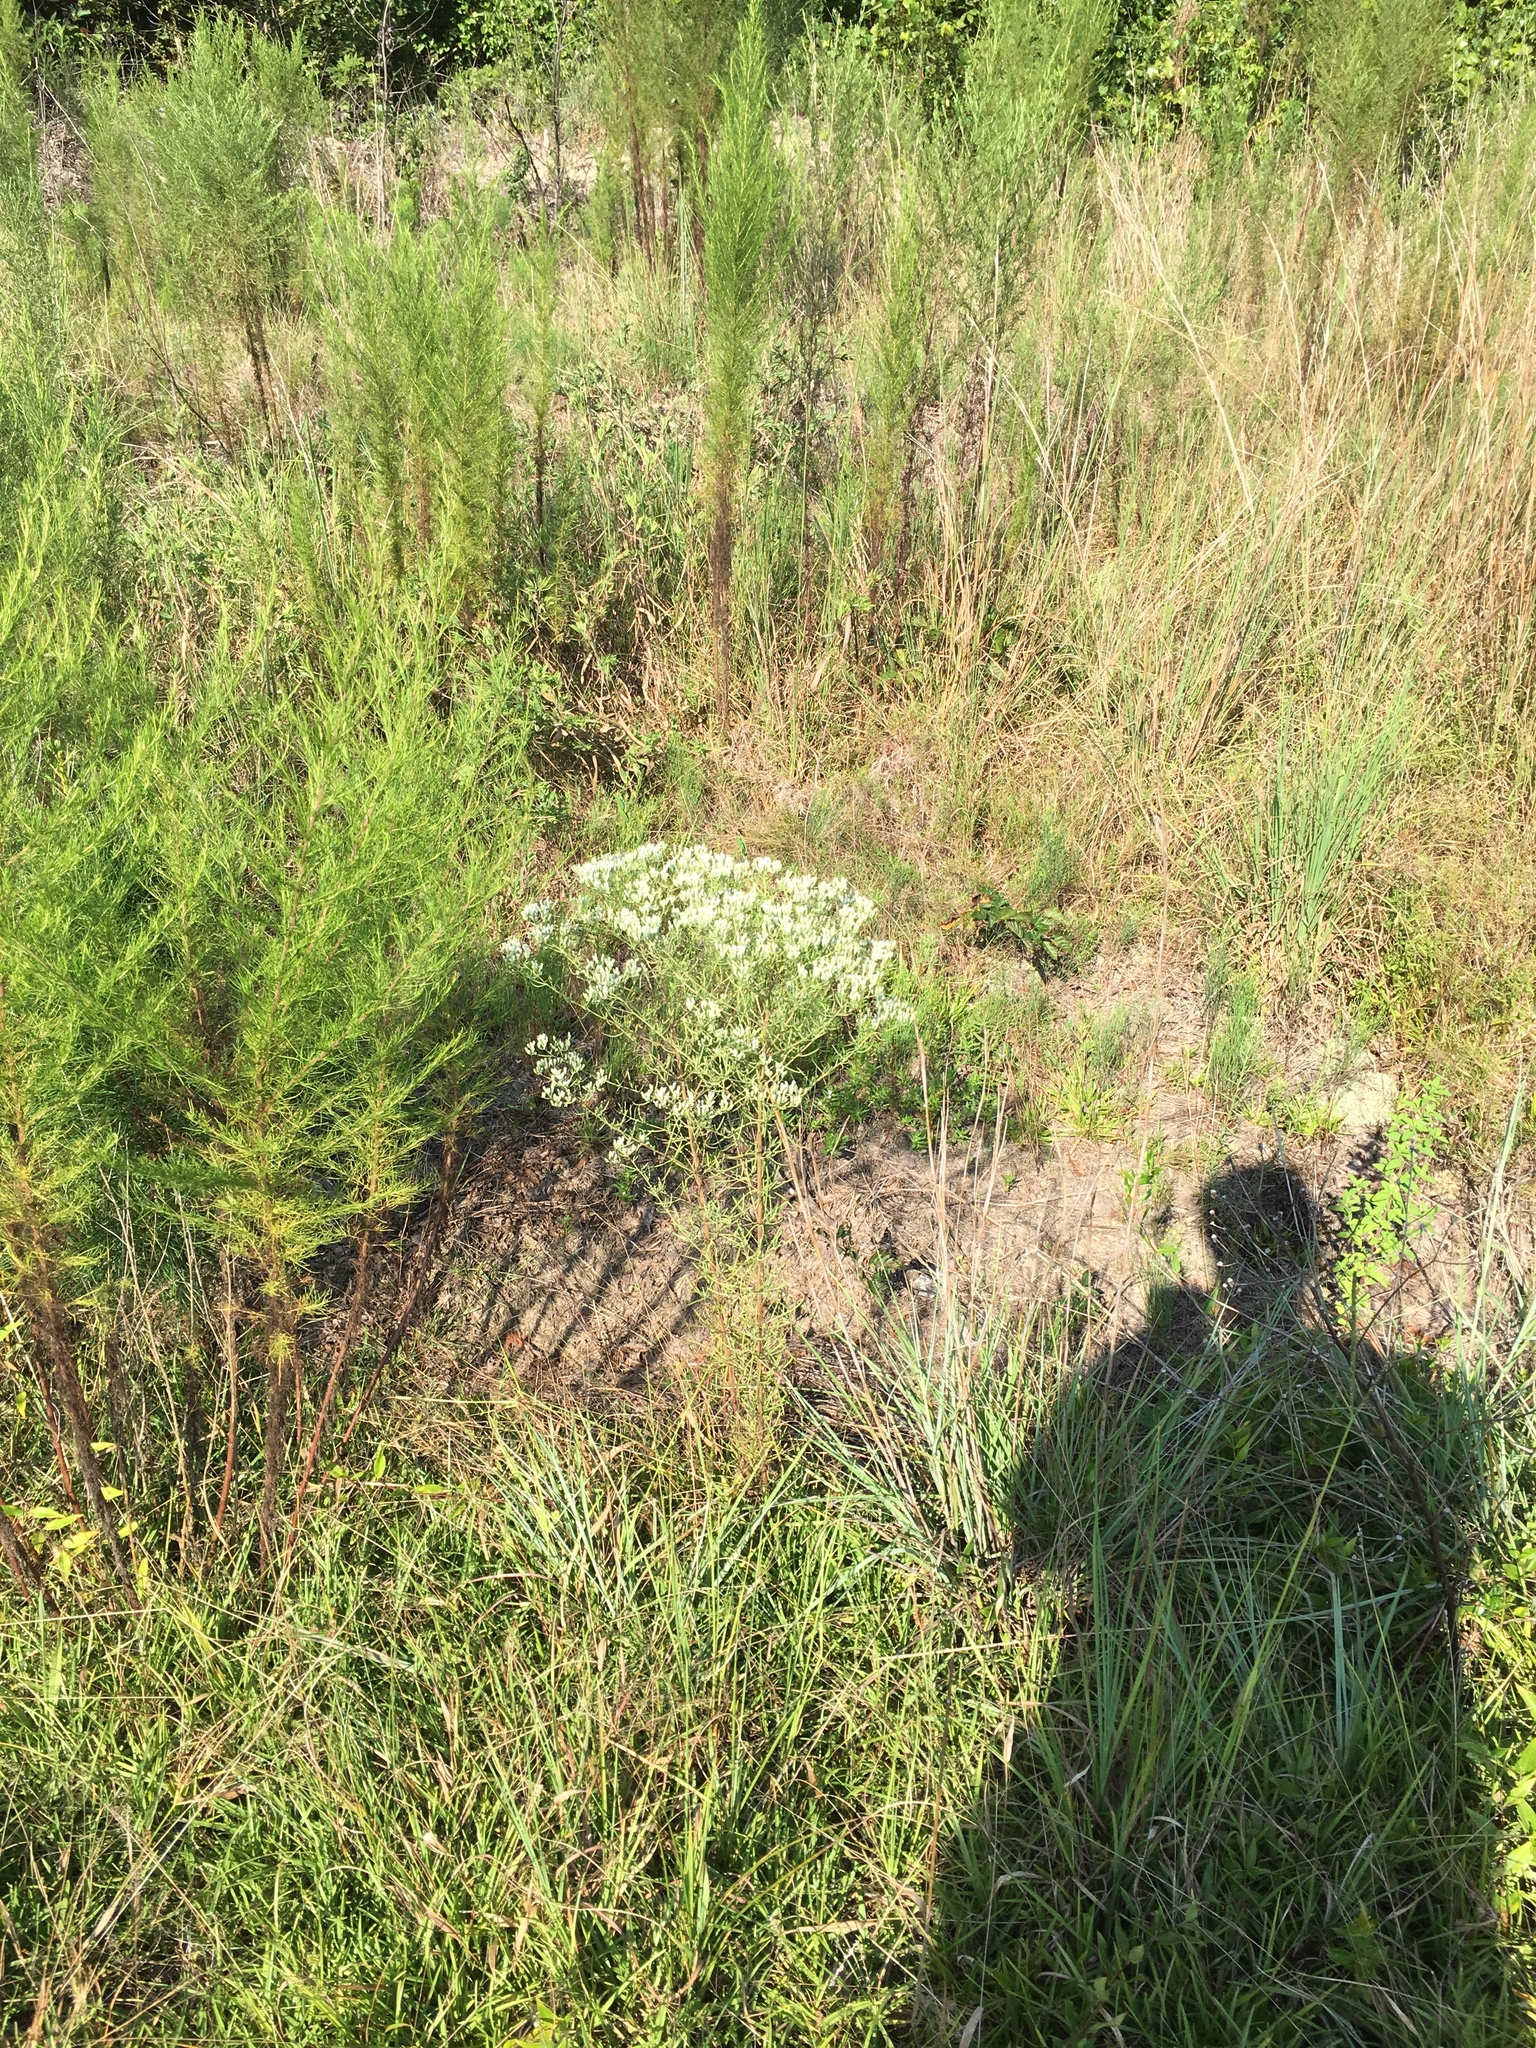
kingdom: Plantae
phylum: Tracheophyta
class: Magnoliopsida
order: Asterales
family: Asteraceae
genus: Eupatorium
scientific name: Eupatorium hyssopifolium
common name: Hyssop-leaf thoroughwort
